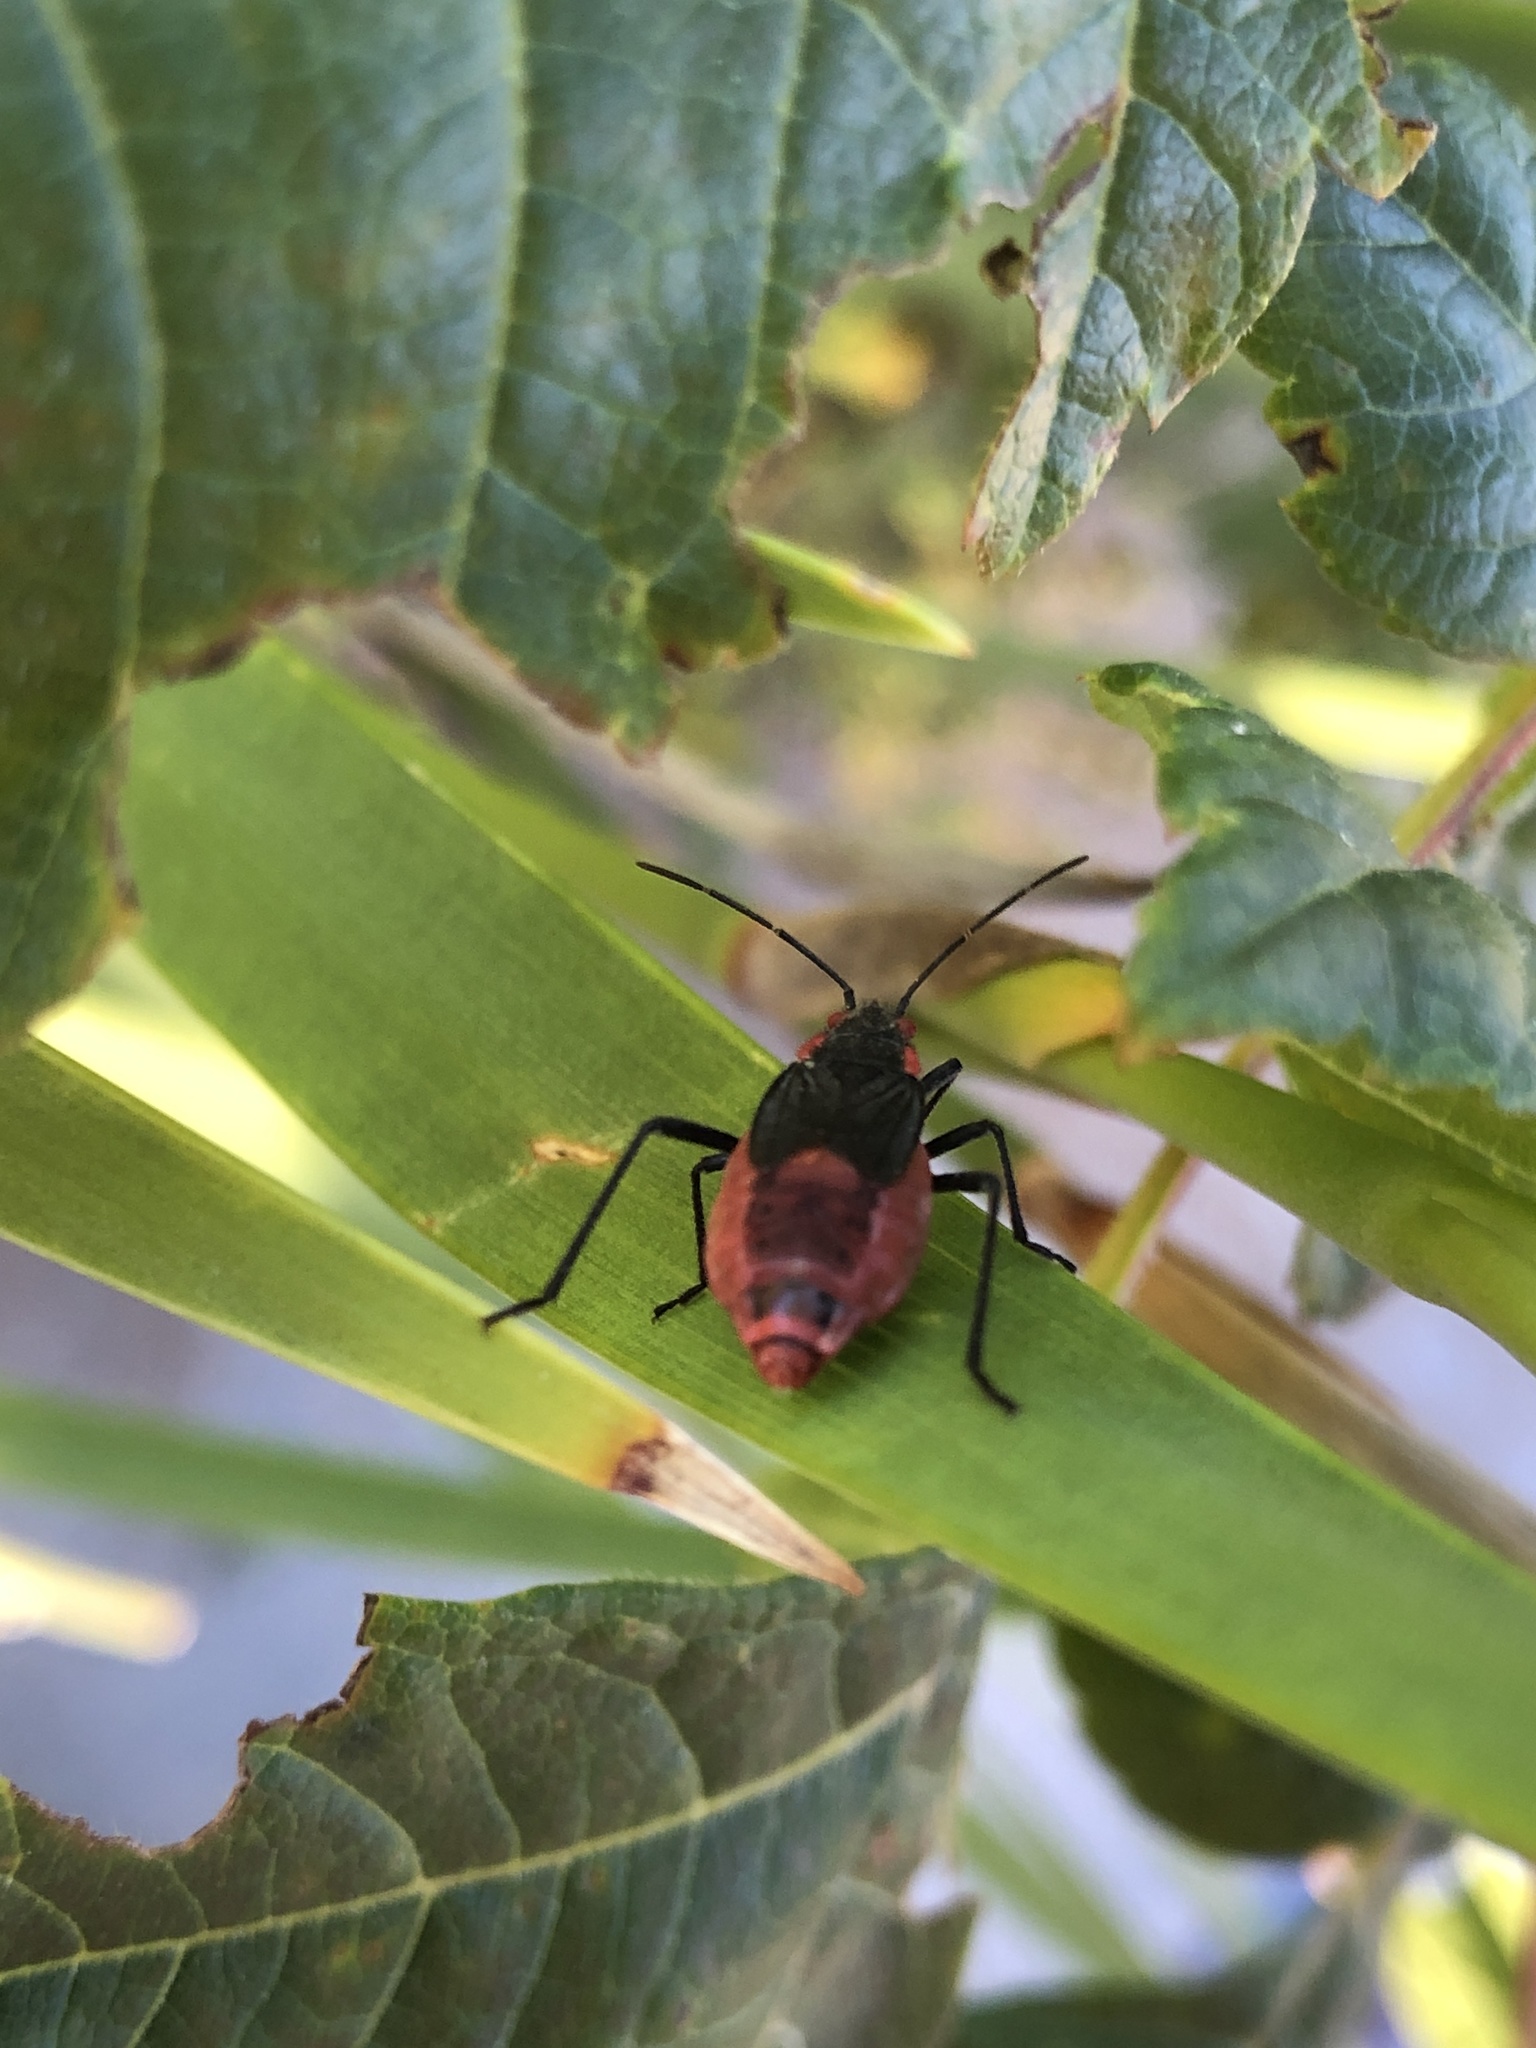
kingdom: Animalia
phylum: Arthropoda
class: Insecta
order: Hemiptera
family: Rhopalidae
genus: Jadera
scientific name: Jadera haematoloma
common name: Red-shouldered bug
